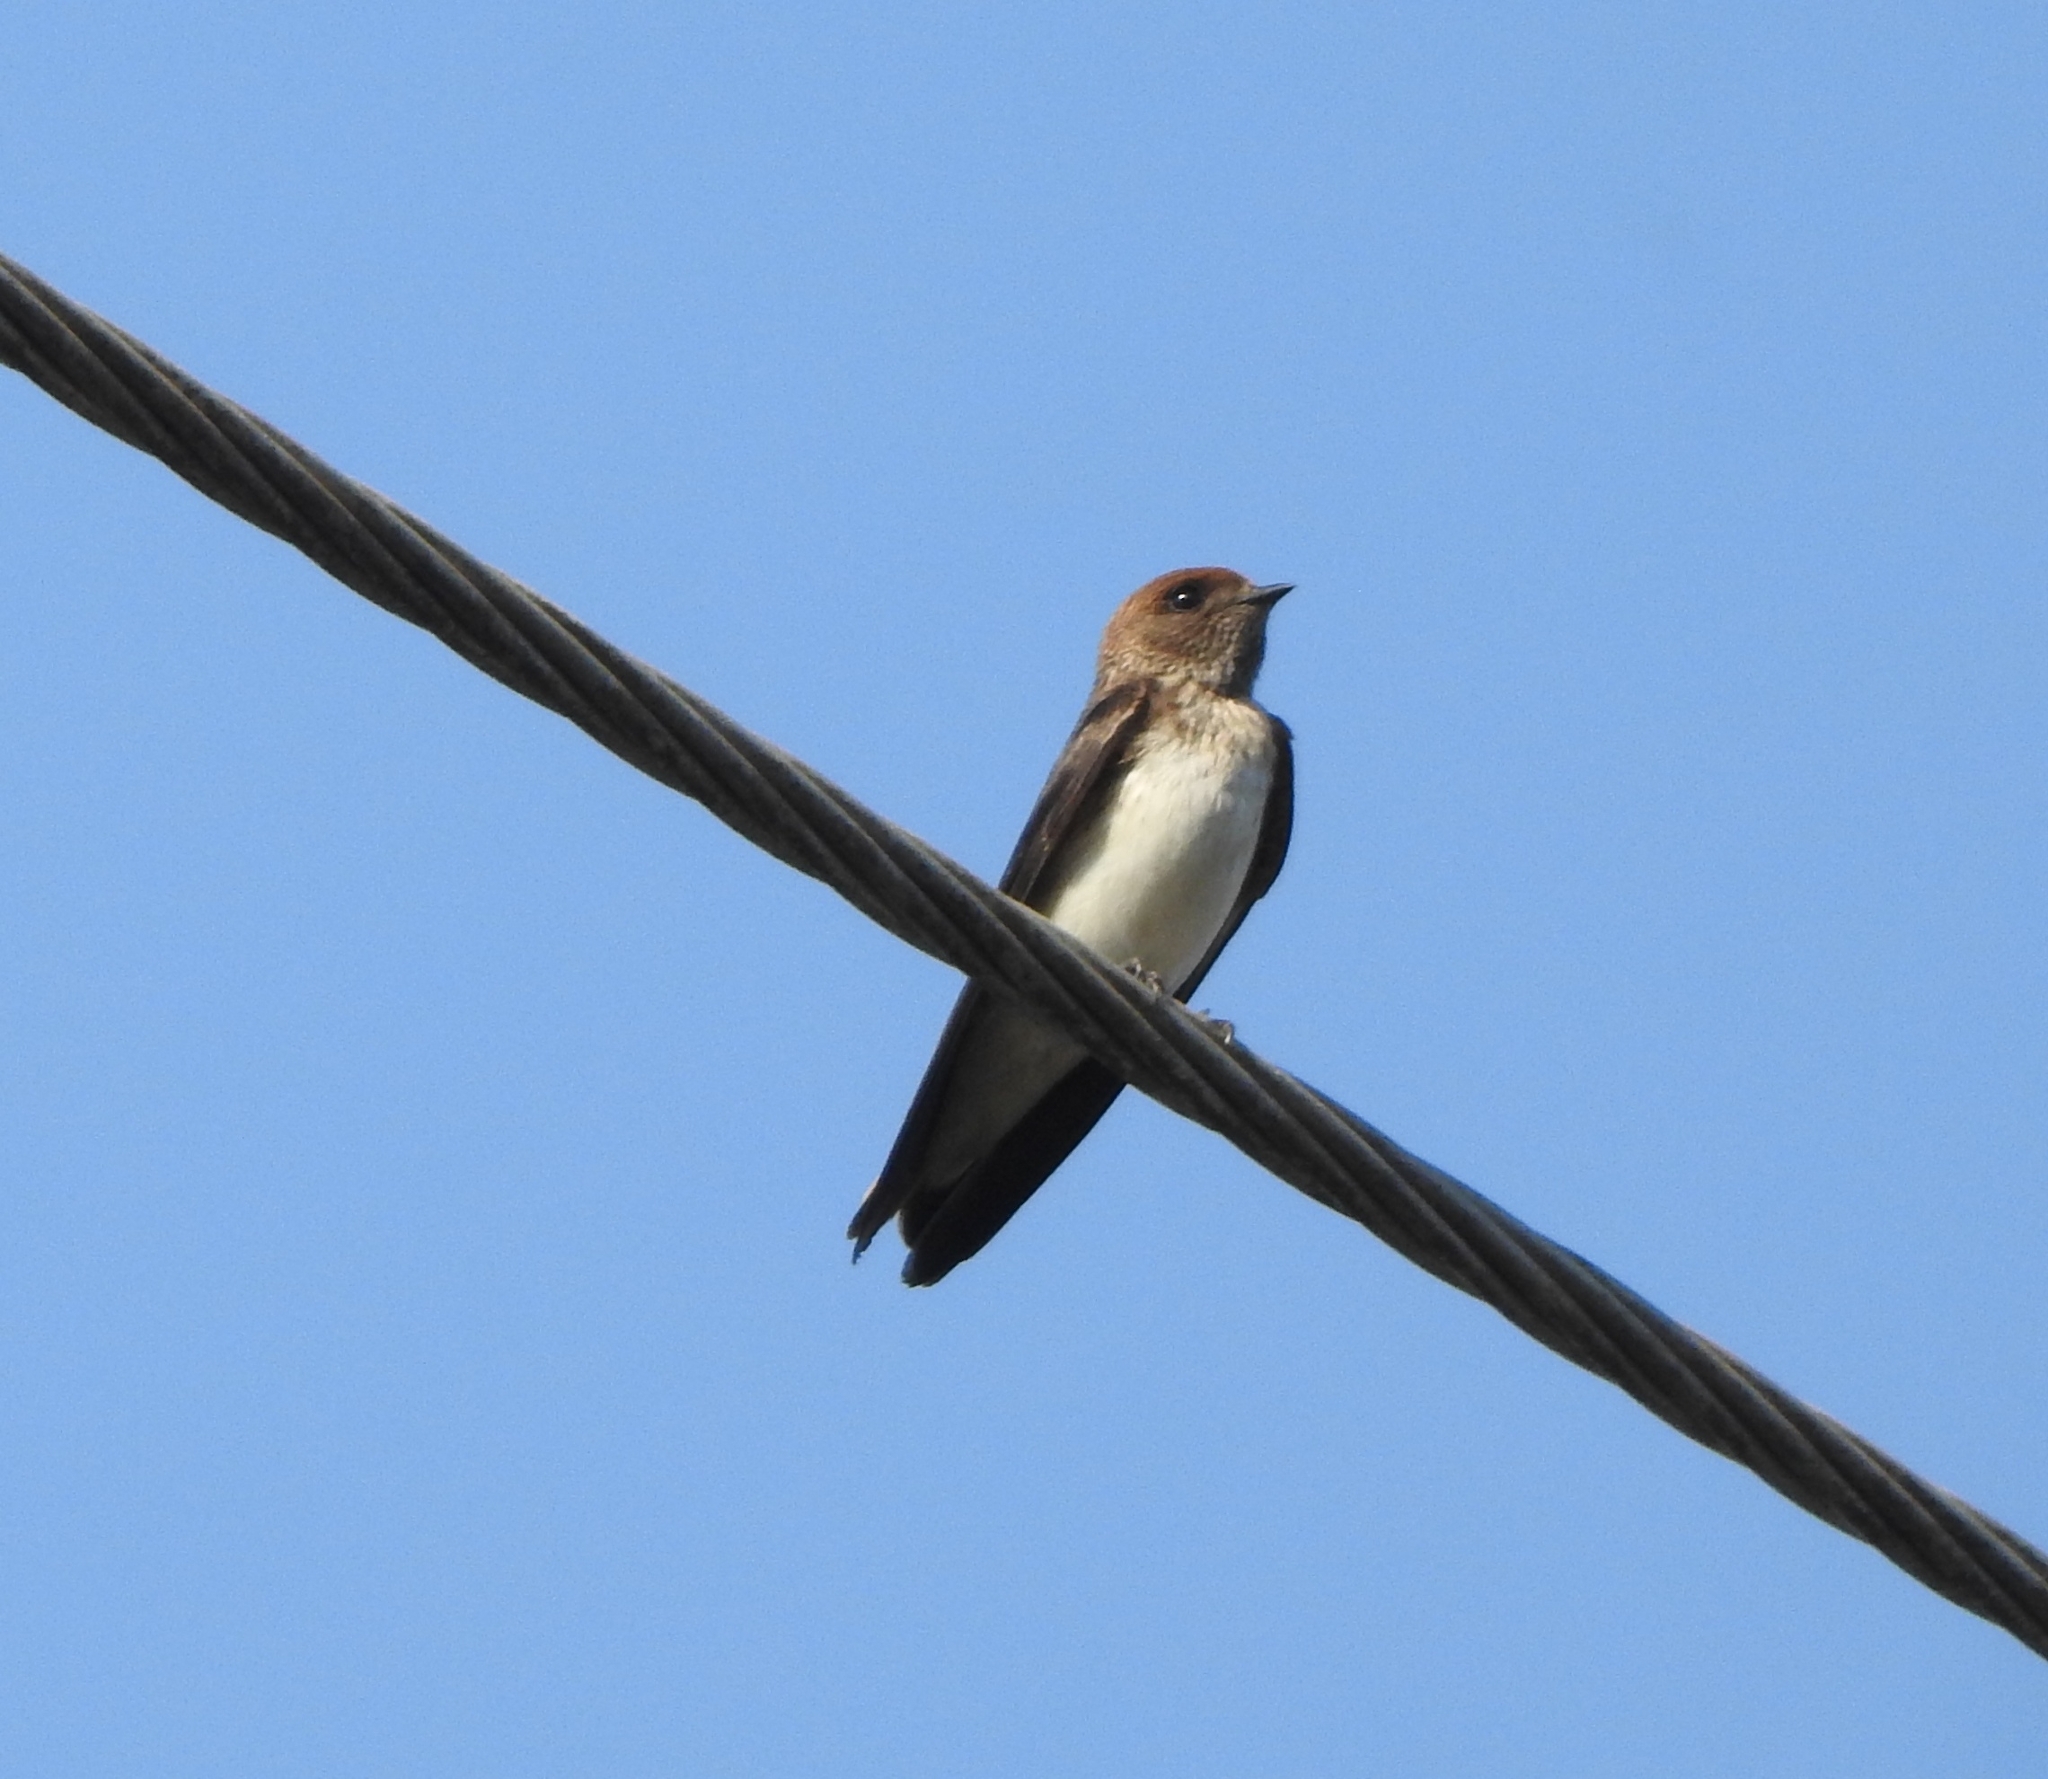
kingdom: Animalia
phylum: Chordata
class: Aves
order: Passeriformes
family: Hirundinidae
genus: Petrochelidon
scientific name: Petrochelidon fluvicola
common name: Streak-throated swallow
